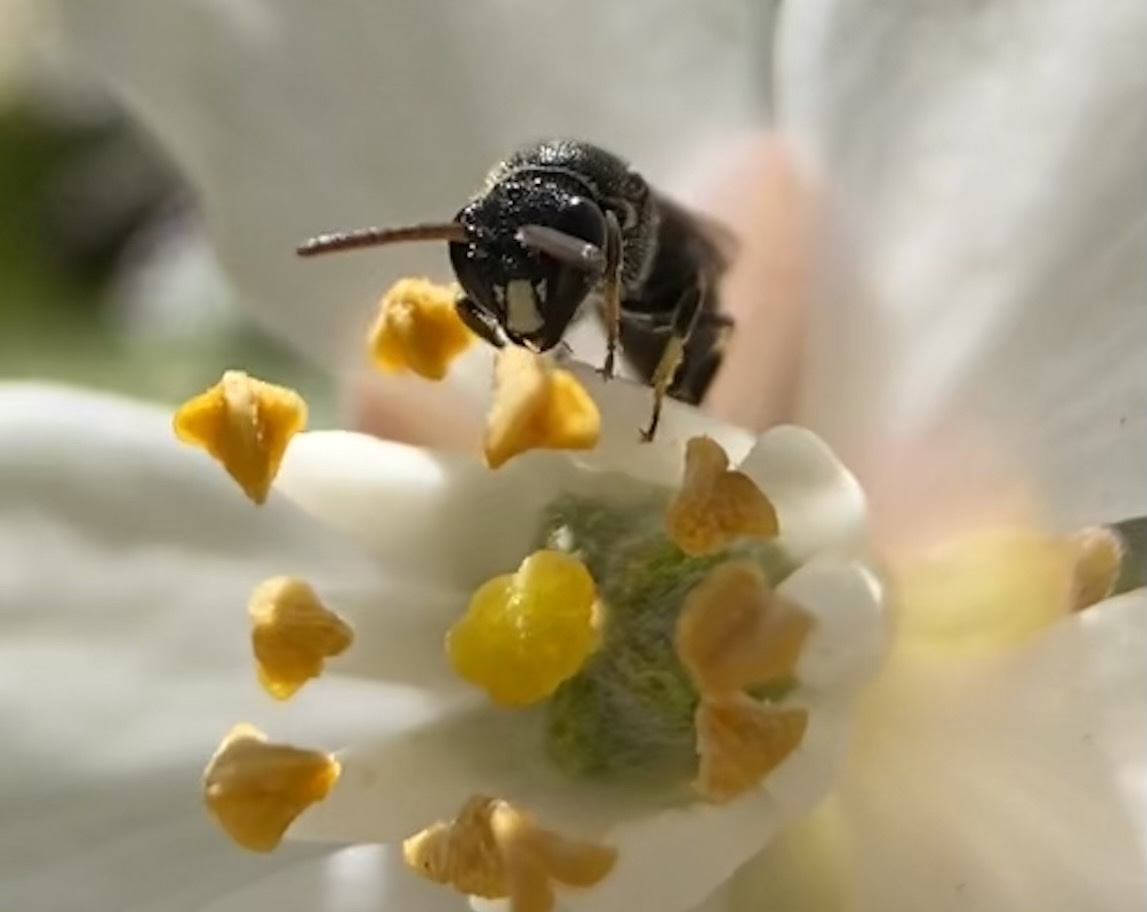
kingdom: Animalia
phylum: Arthropoda
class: Insecta
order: Hymenoptera
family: Colletidae
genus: Hylaeus
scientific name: Hylaeus punctatus
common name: Punctate masked bee
